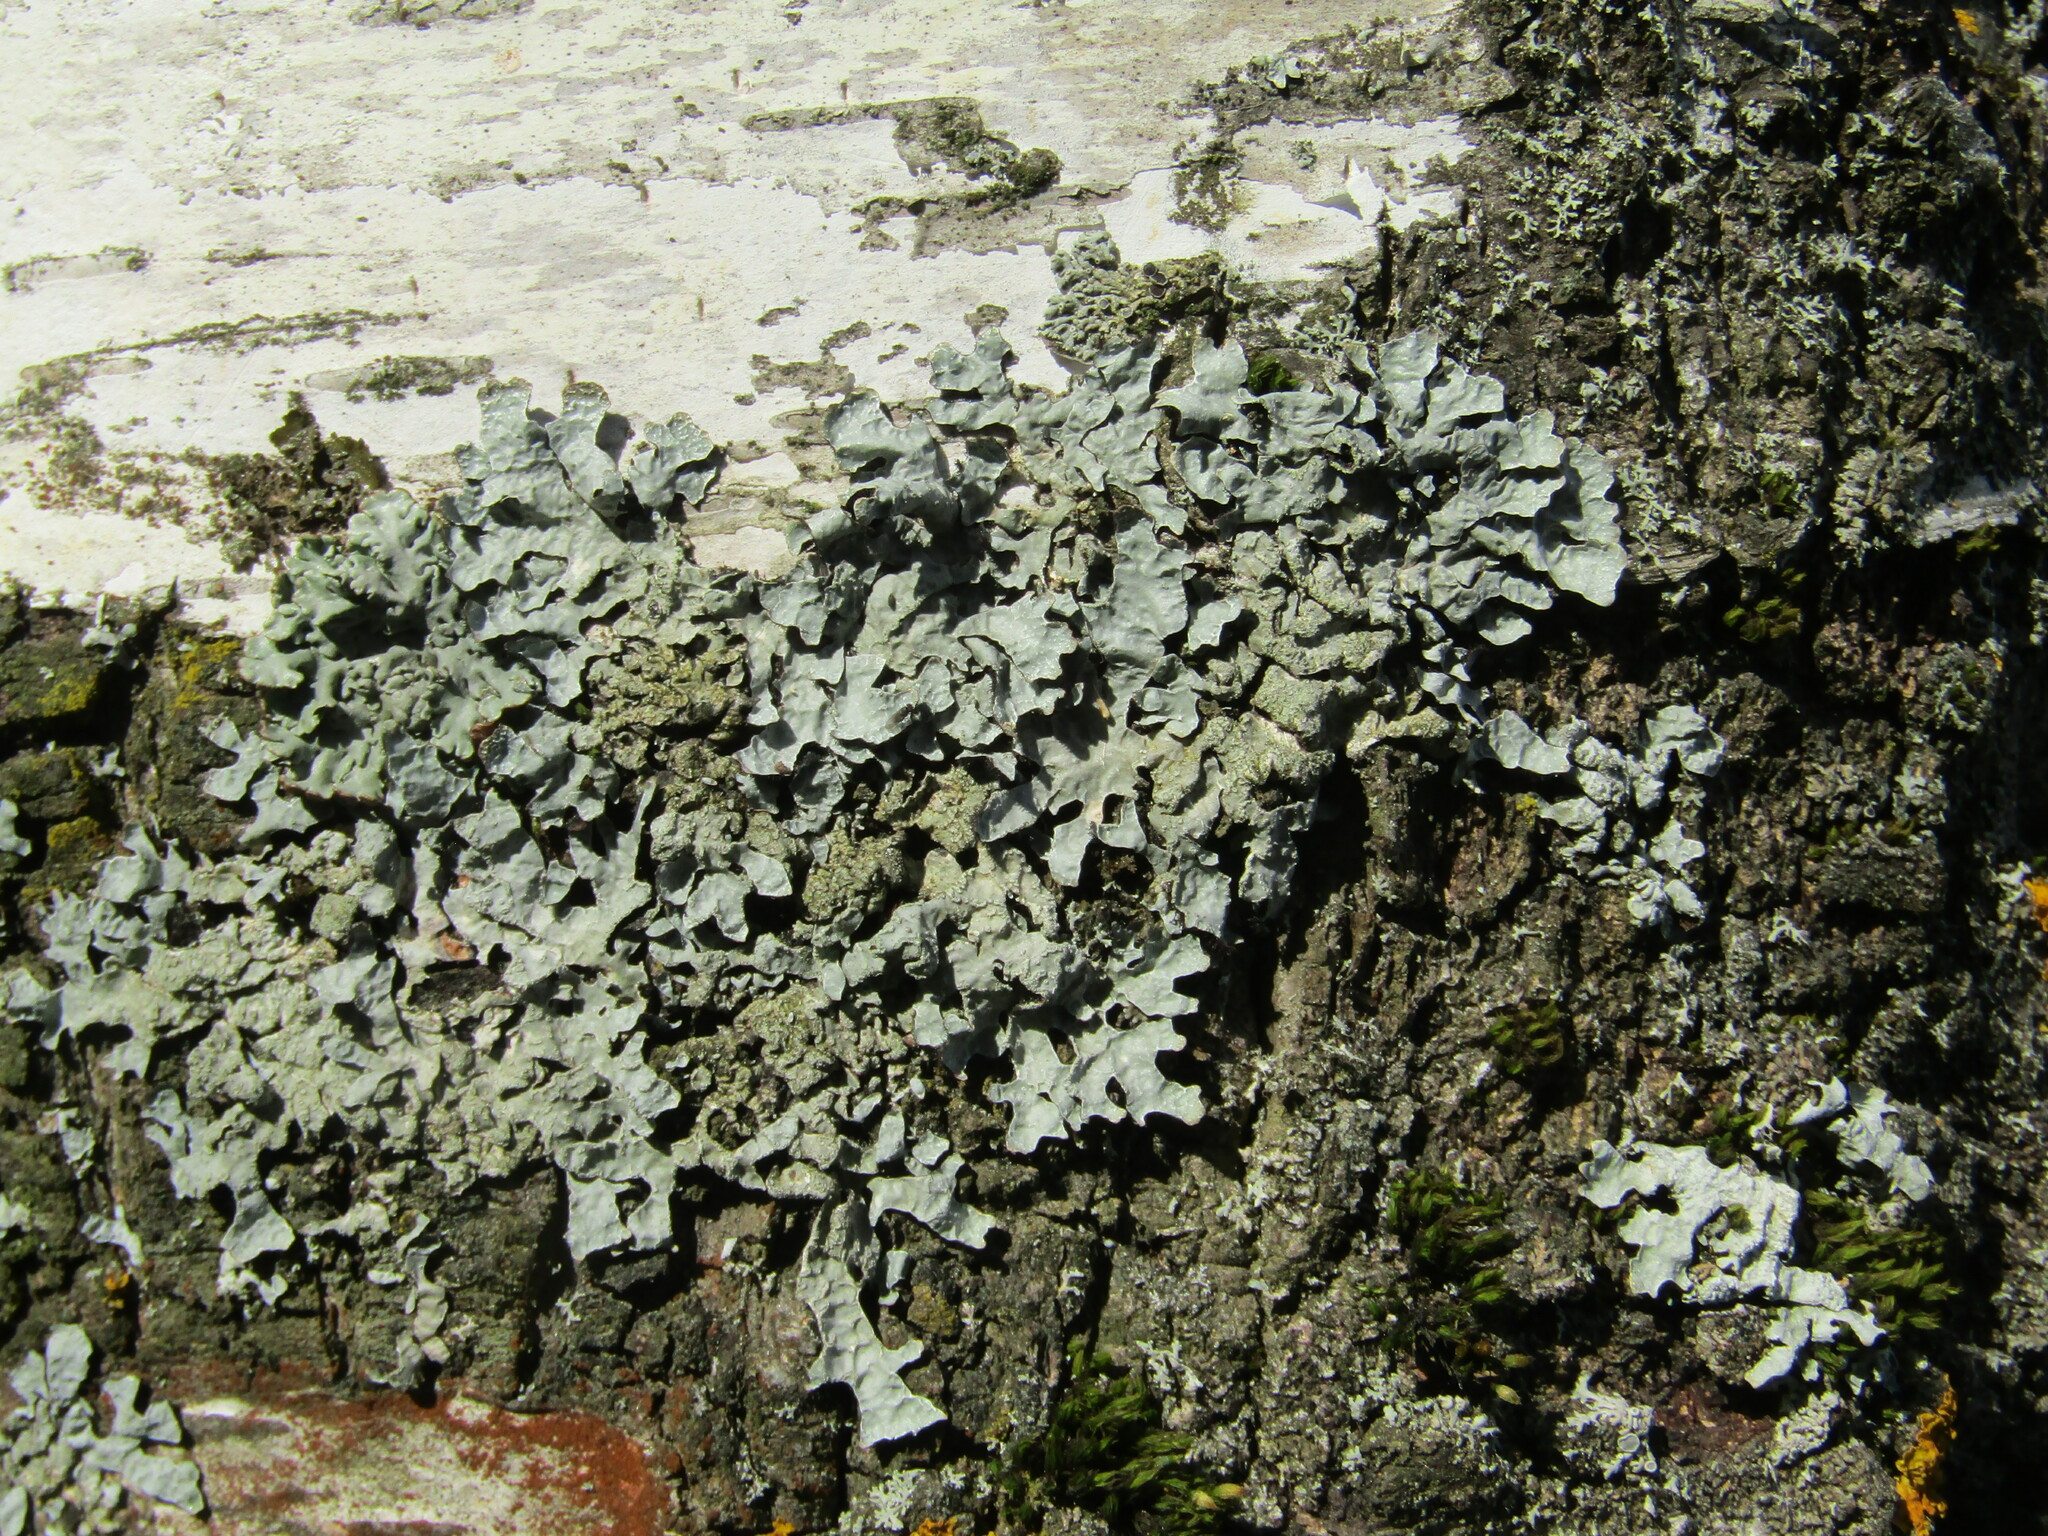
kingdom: Fungi
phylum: Ascomycota
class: Lecanoromycetes
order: Lecanorales
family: Parmeliaceae
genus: Parmelia
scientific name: Parmelia sulcata
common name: Netted shield lichen
